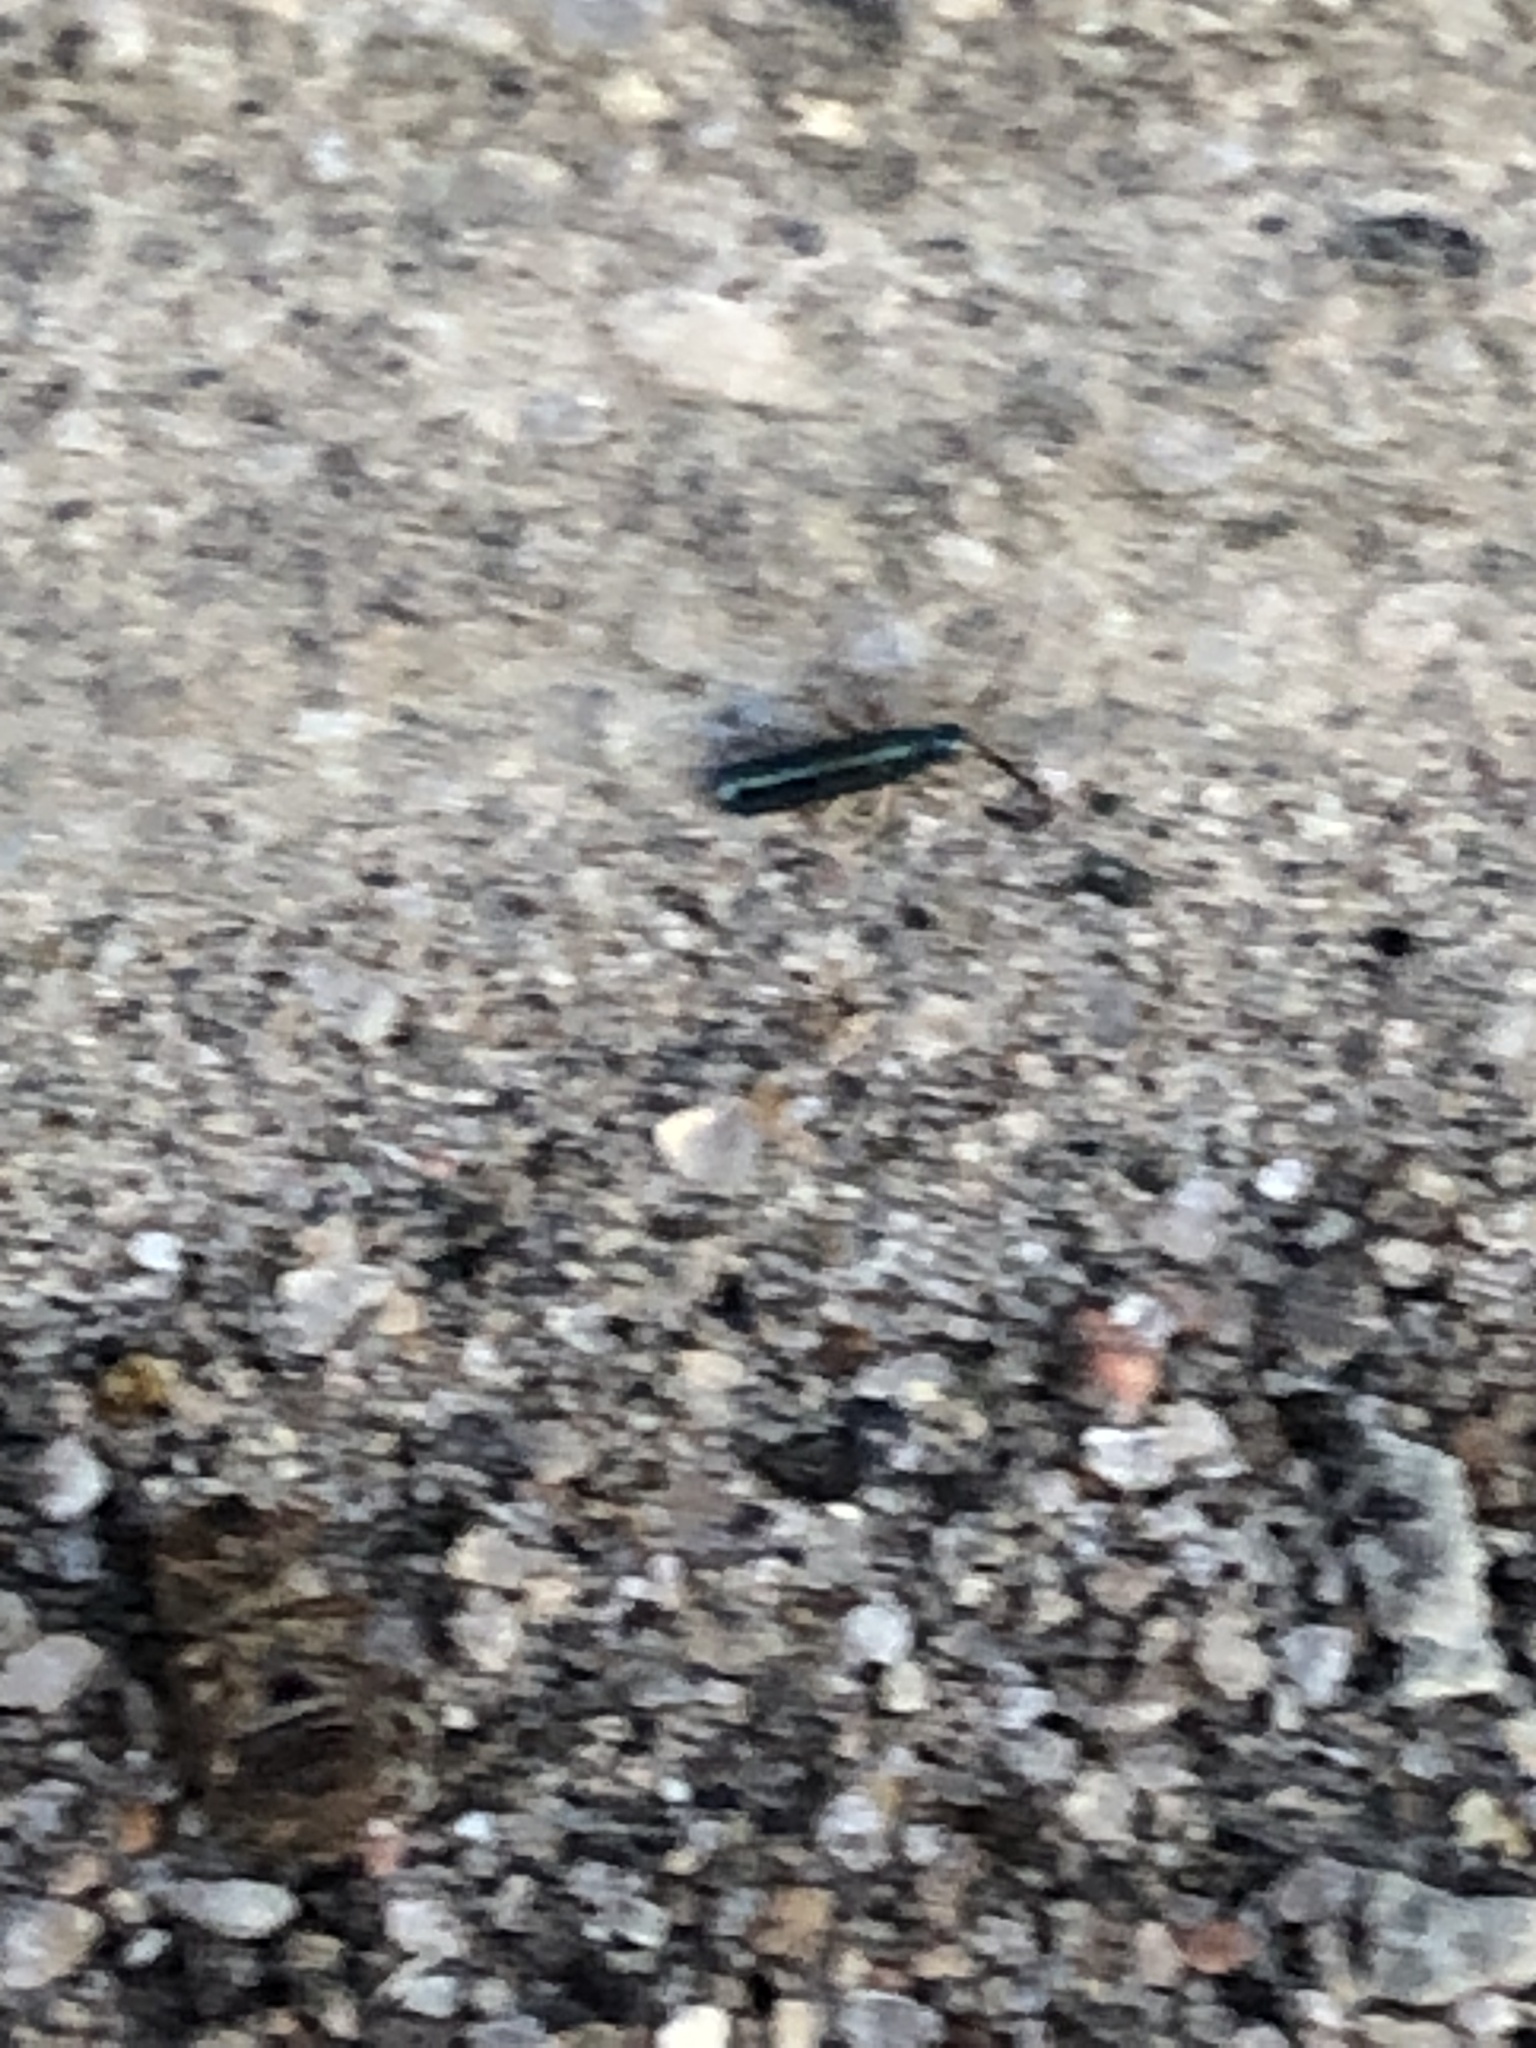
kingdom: Animalia
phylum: Arthropoda
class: Collembola
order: Entomobryomorpha
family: Entomobryidae
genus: Lepidocyrtus
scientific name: Lepidocyrtus paradoxus
